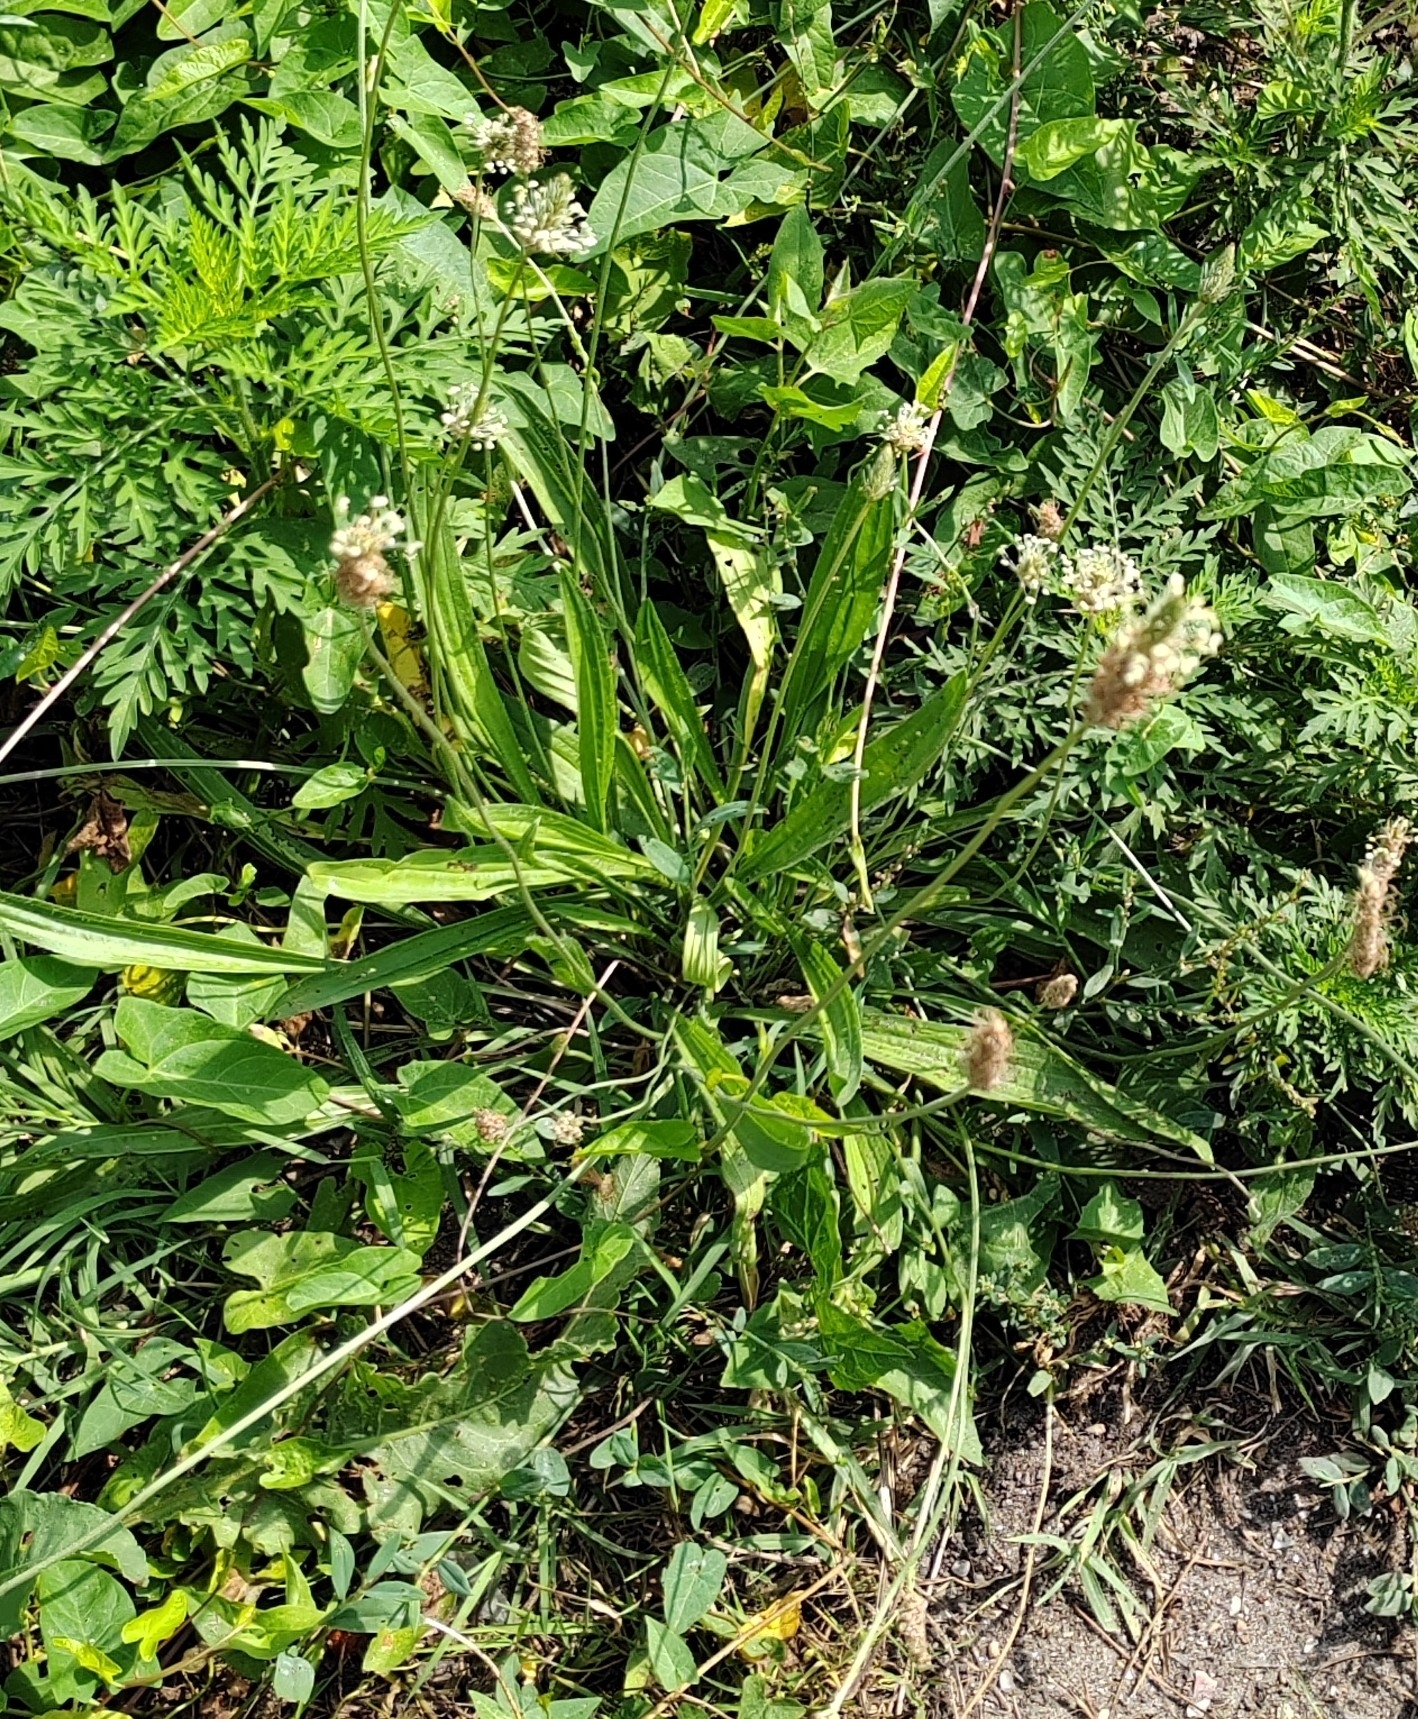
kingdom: Plantae
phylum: Tracheophyta
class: Magnoliopsida
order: Lamiales
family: Plantaginaceae
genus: Plantago
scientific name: Plantago lanceolata
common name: Ribwort plantain
